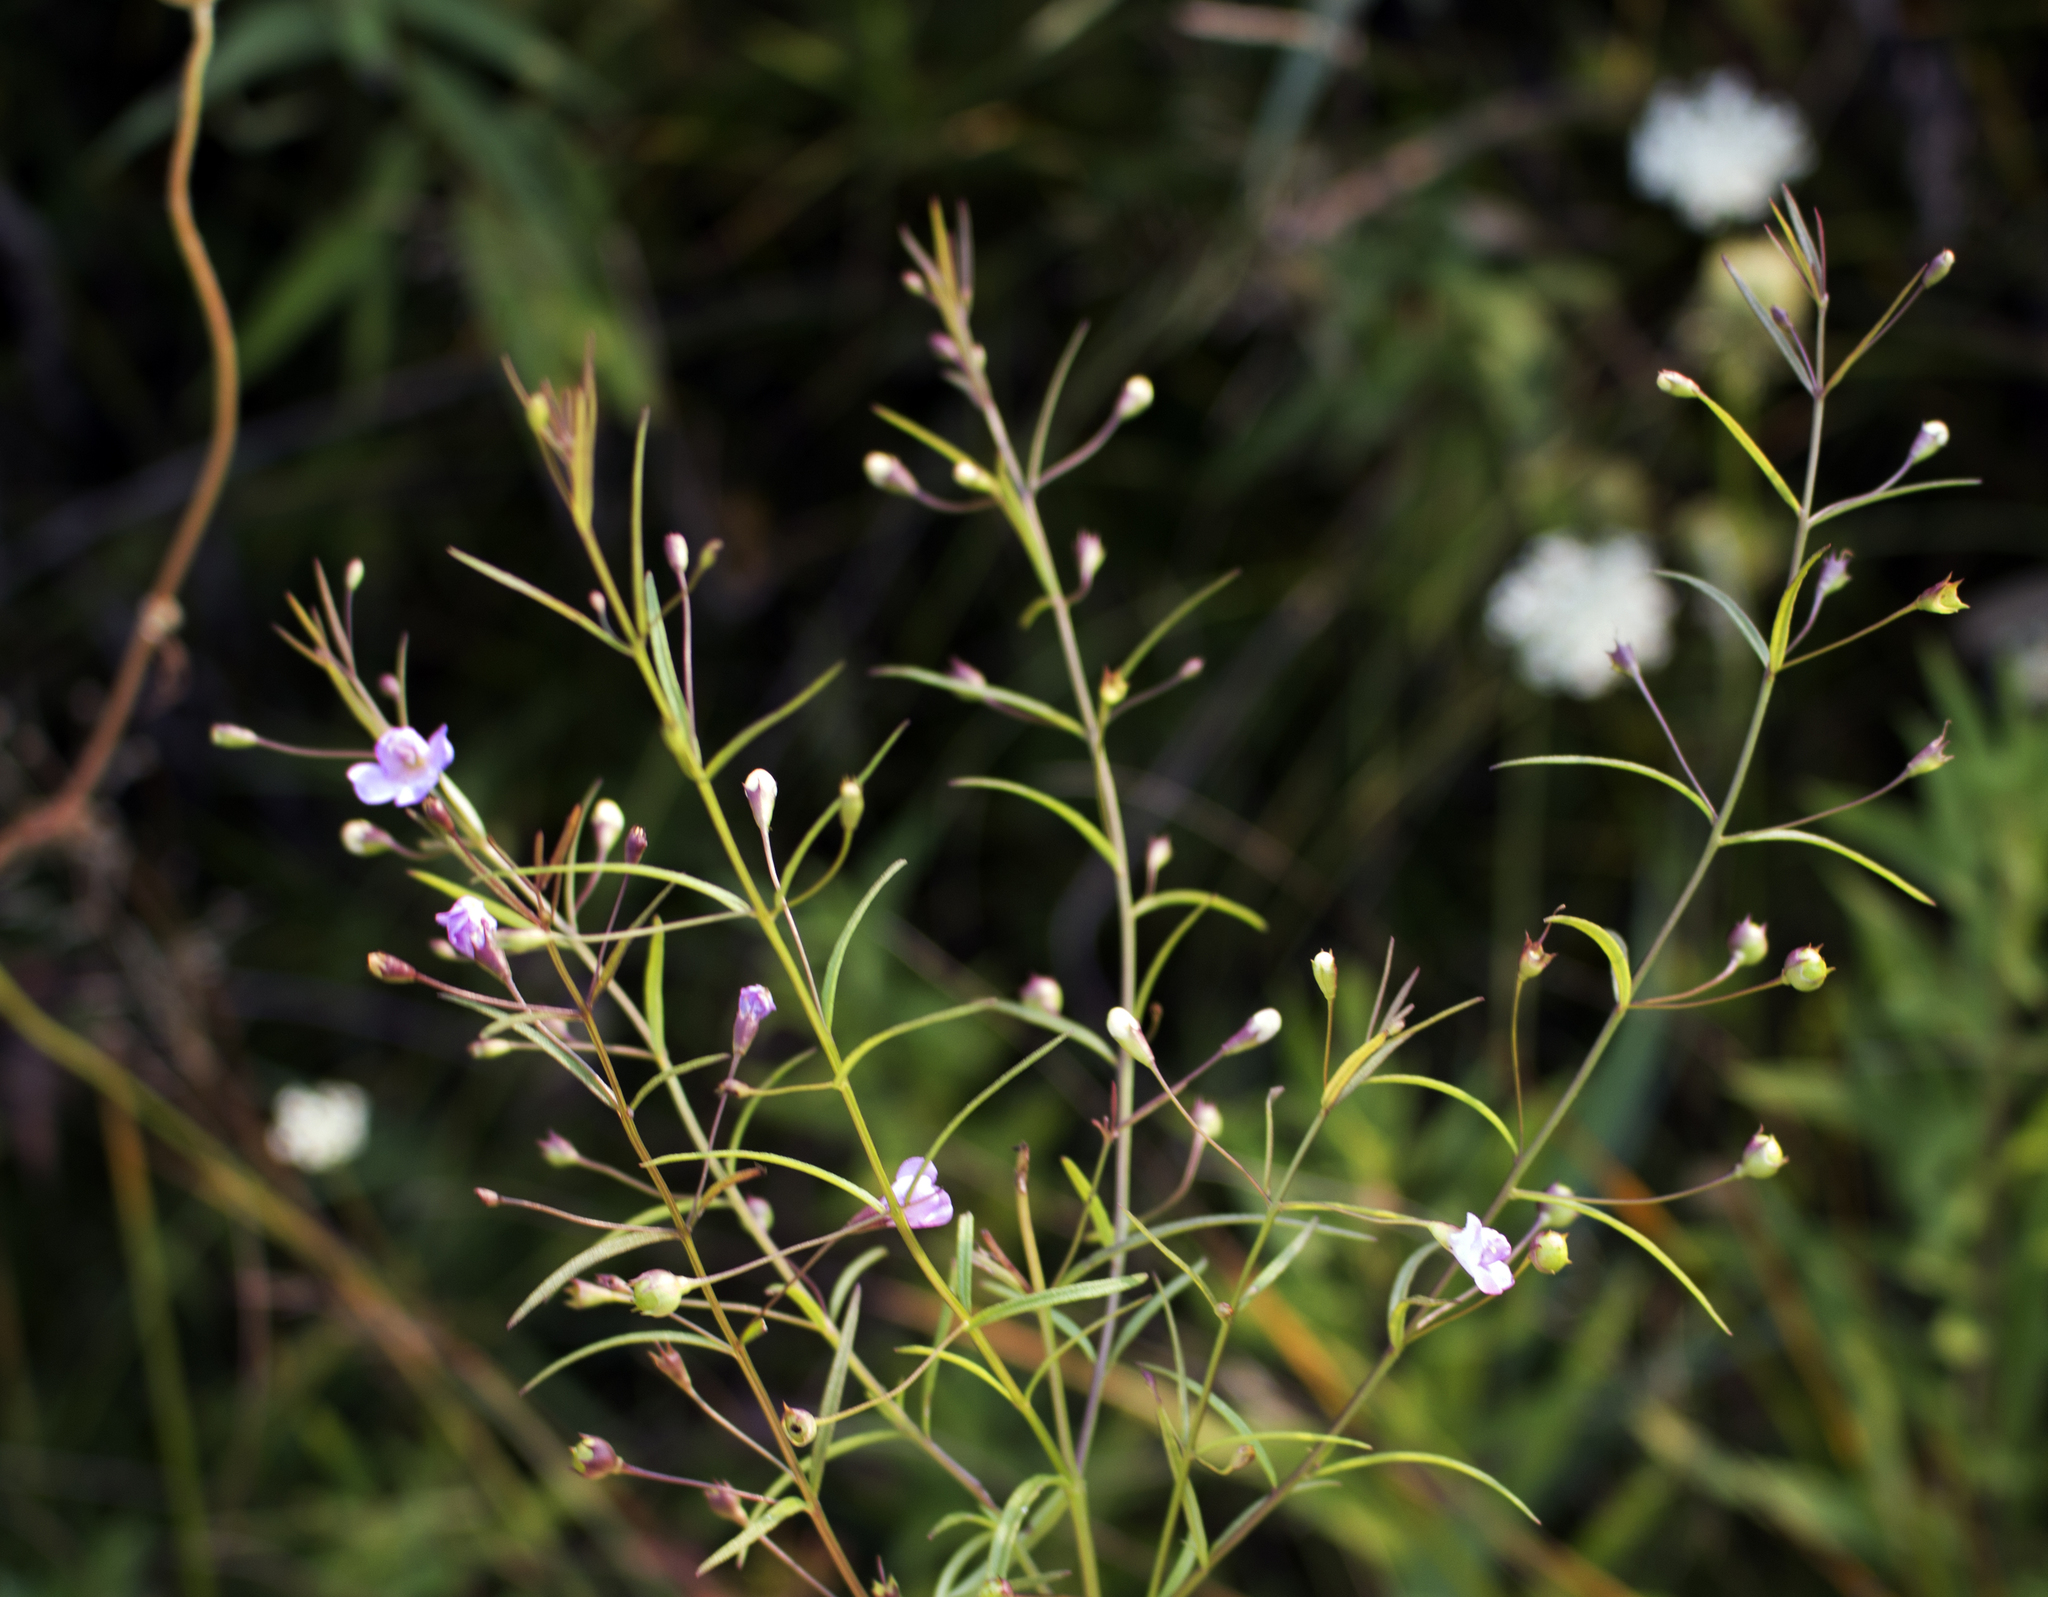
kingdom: Plantae
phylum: Tracheophyta
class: Magnoliopsida
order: Lamiales
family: Orobanchaceae
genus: Agalinis
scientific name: Agalinis tenuifolia
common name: Slender agalinis
